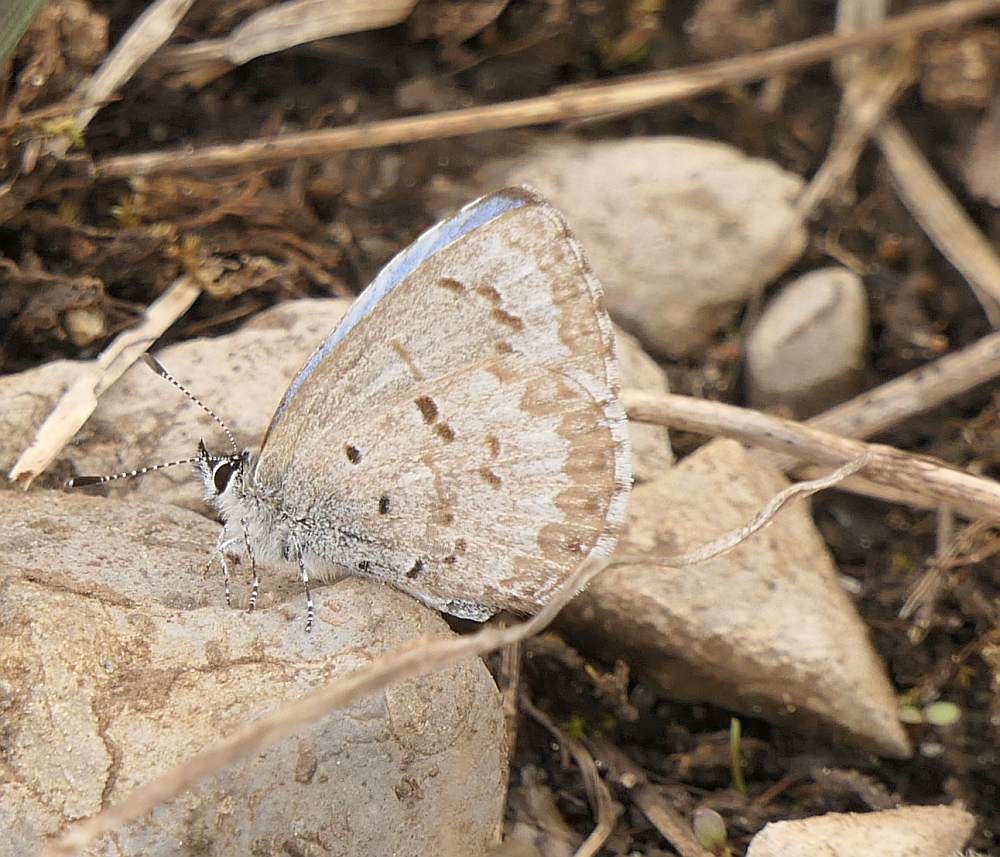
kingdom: Animalia
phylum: Arthropoda
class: Insecta
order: Lepidoptera
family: Lycaenidae
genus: Celastrina
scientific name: Celastrina lucia
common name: Lucia azure
